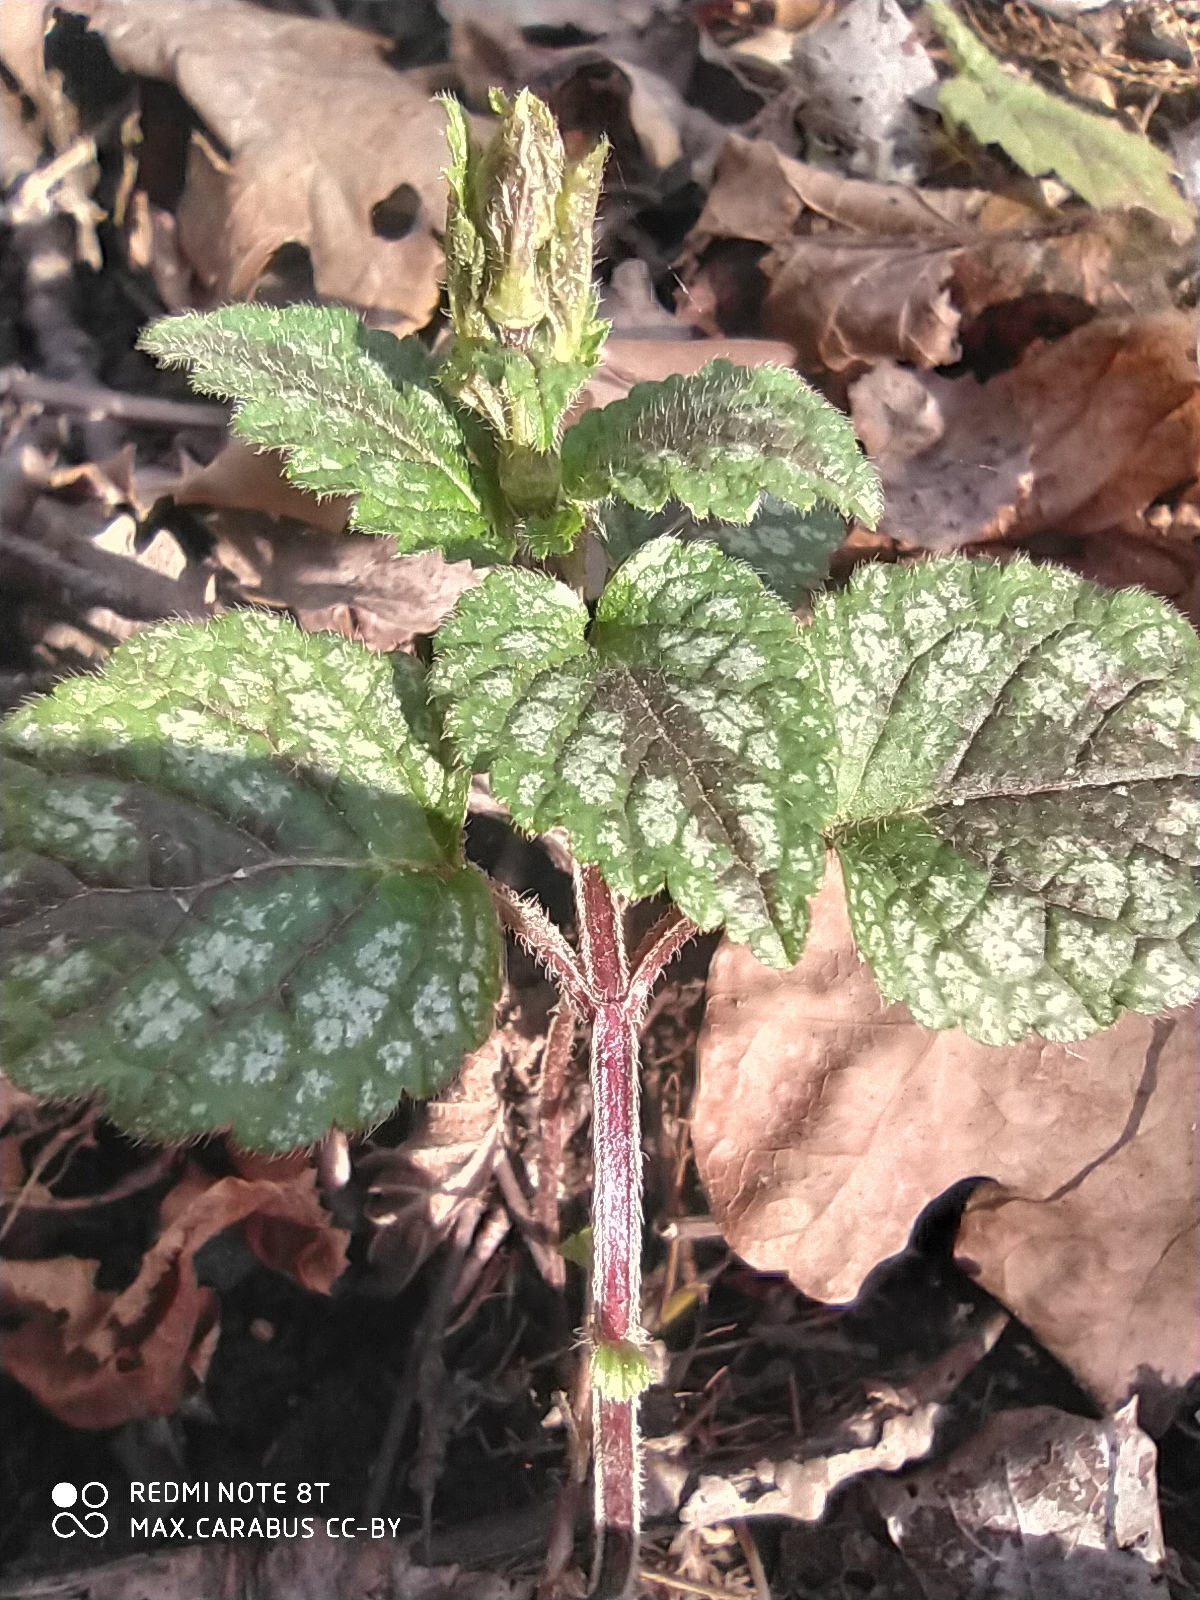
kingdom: Plantae
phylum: Tracheophyta
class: Magnoliopsida
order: Lamiales
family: Lamiaceae
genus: Lamium
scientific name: Lamium galeobdolon
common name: Yellow archangel
